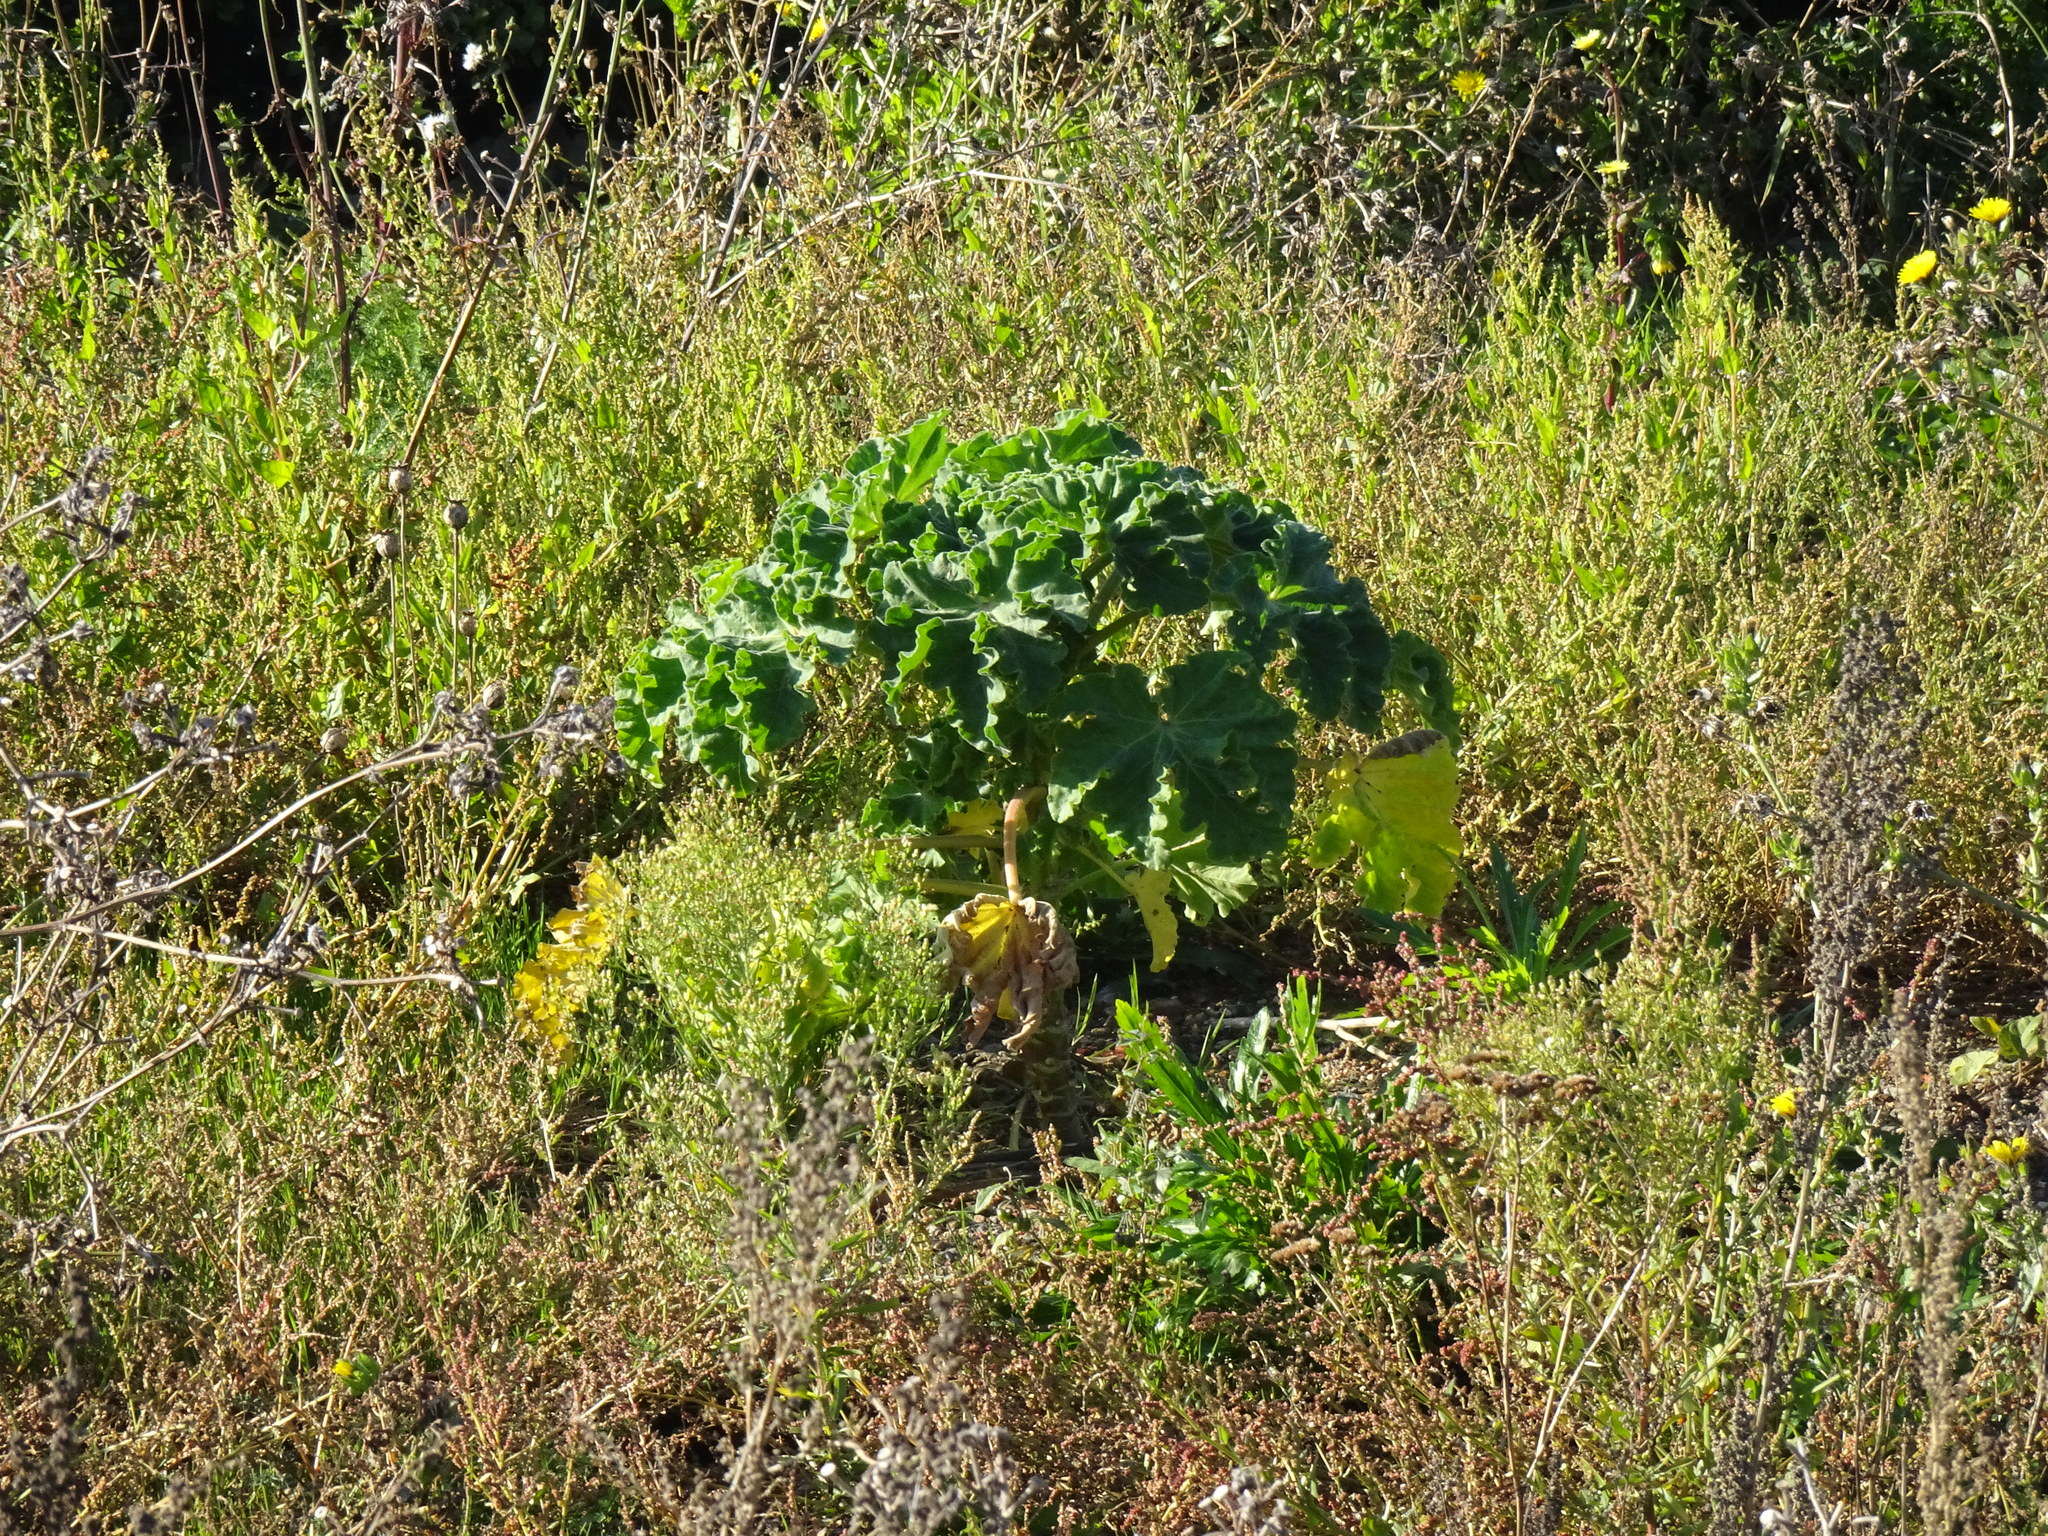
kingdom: Plantae
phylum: Tracheophyta
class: Magnoliopsida
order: Malvales
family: Malvaceae
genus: Malva
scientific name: Malva arborea
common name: Tree mallow
